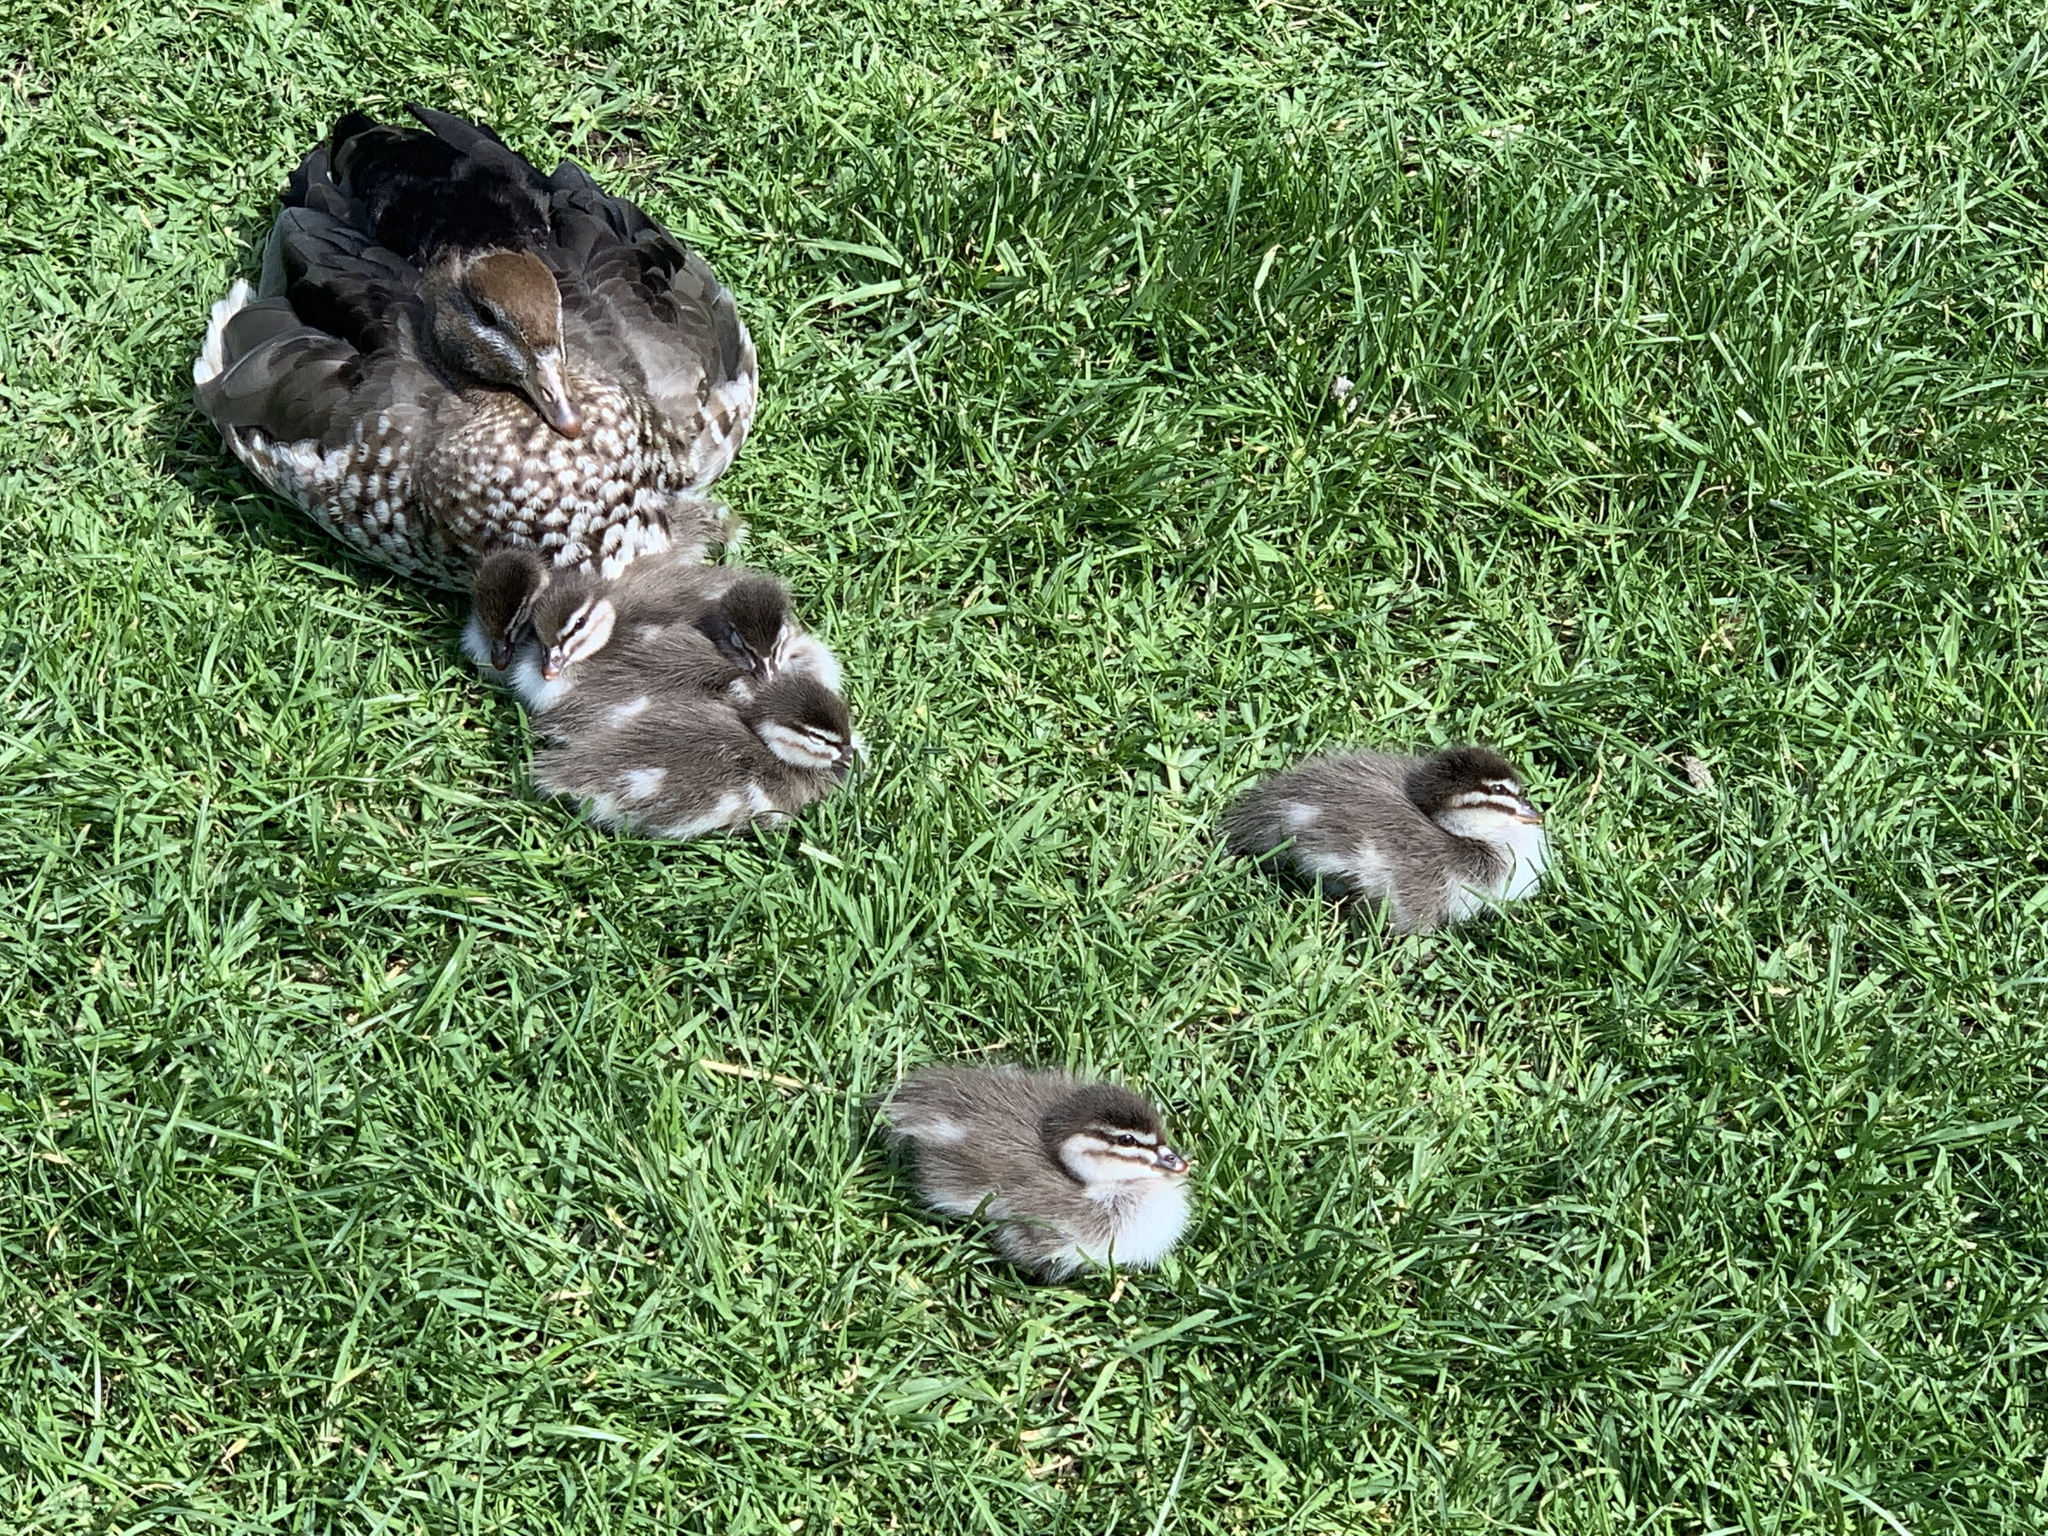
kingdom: Animalia
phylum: Chordata
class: Aves
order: Anseriformes
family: Anatidae
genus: Chenonetta
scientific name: Chenonetta jubata
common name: Maned duck
